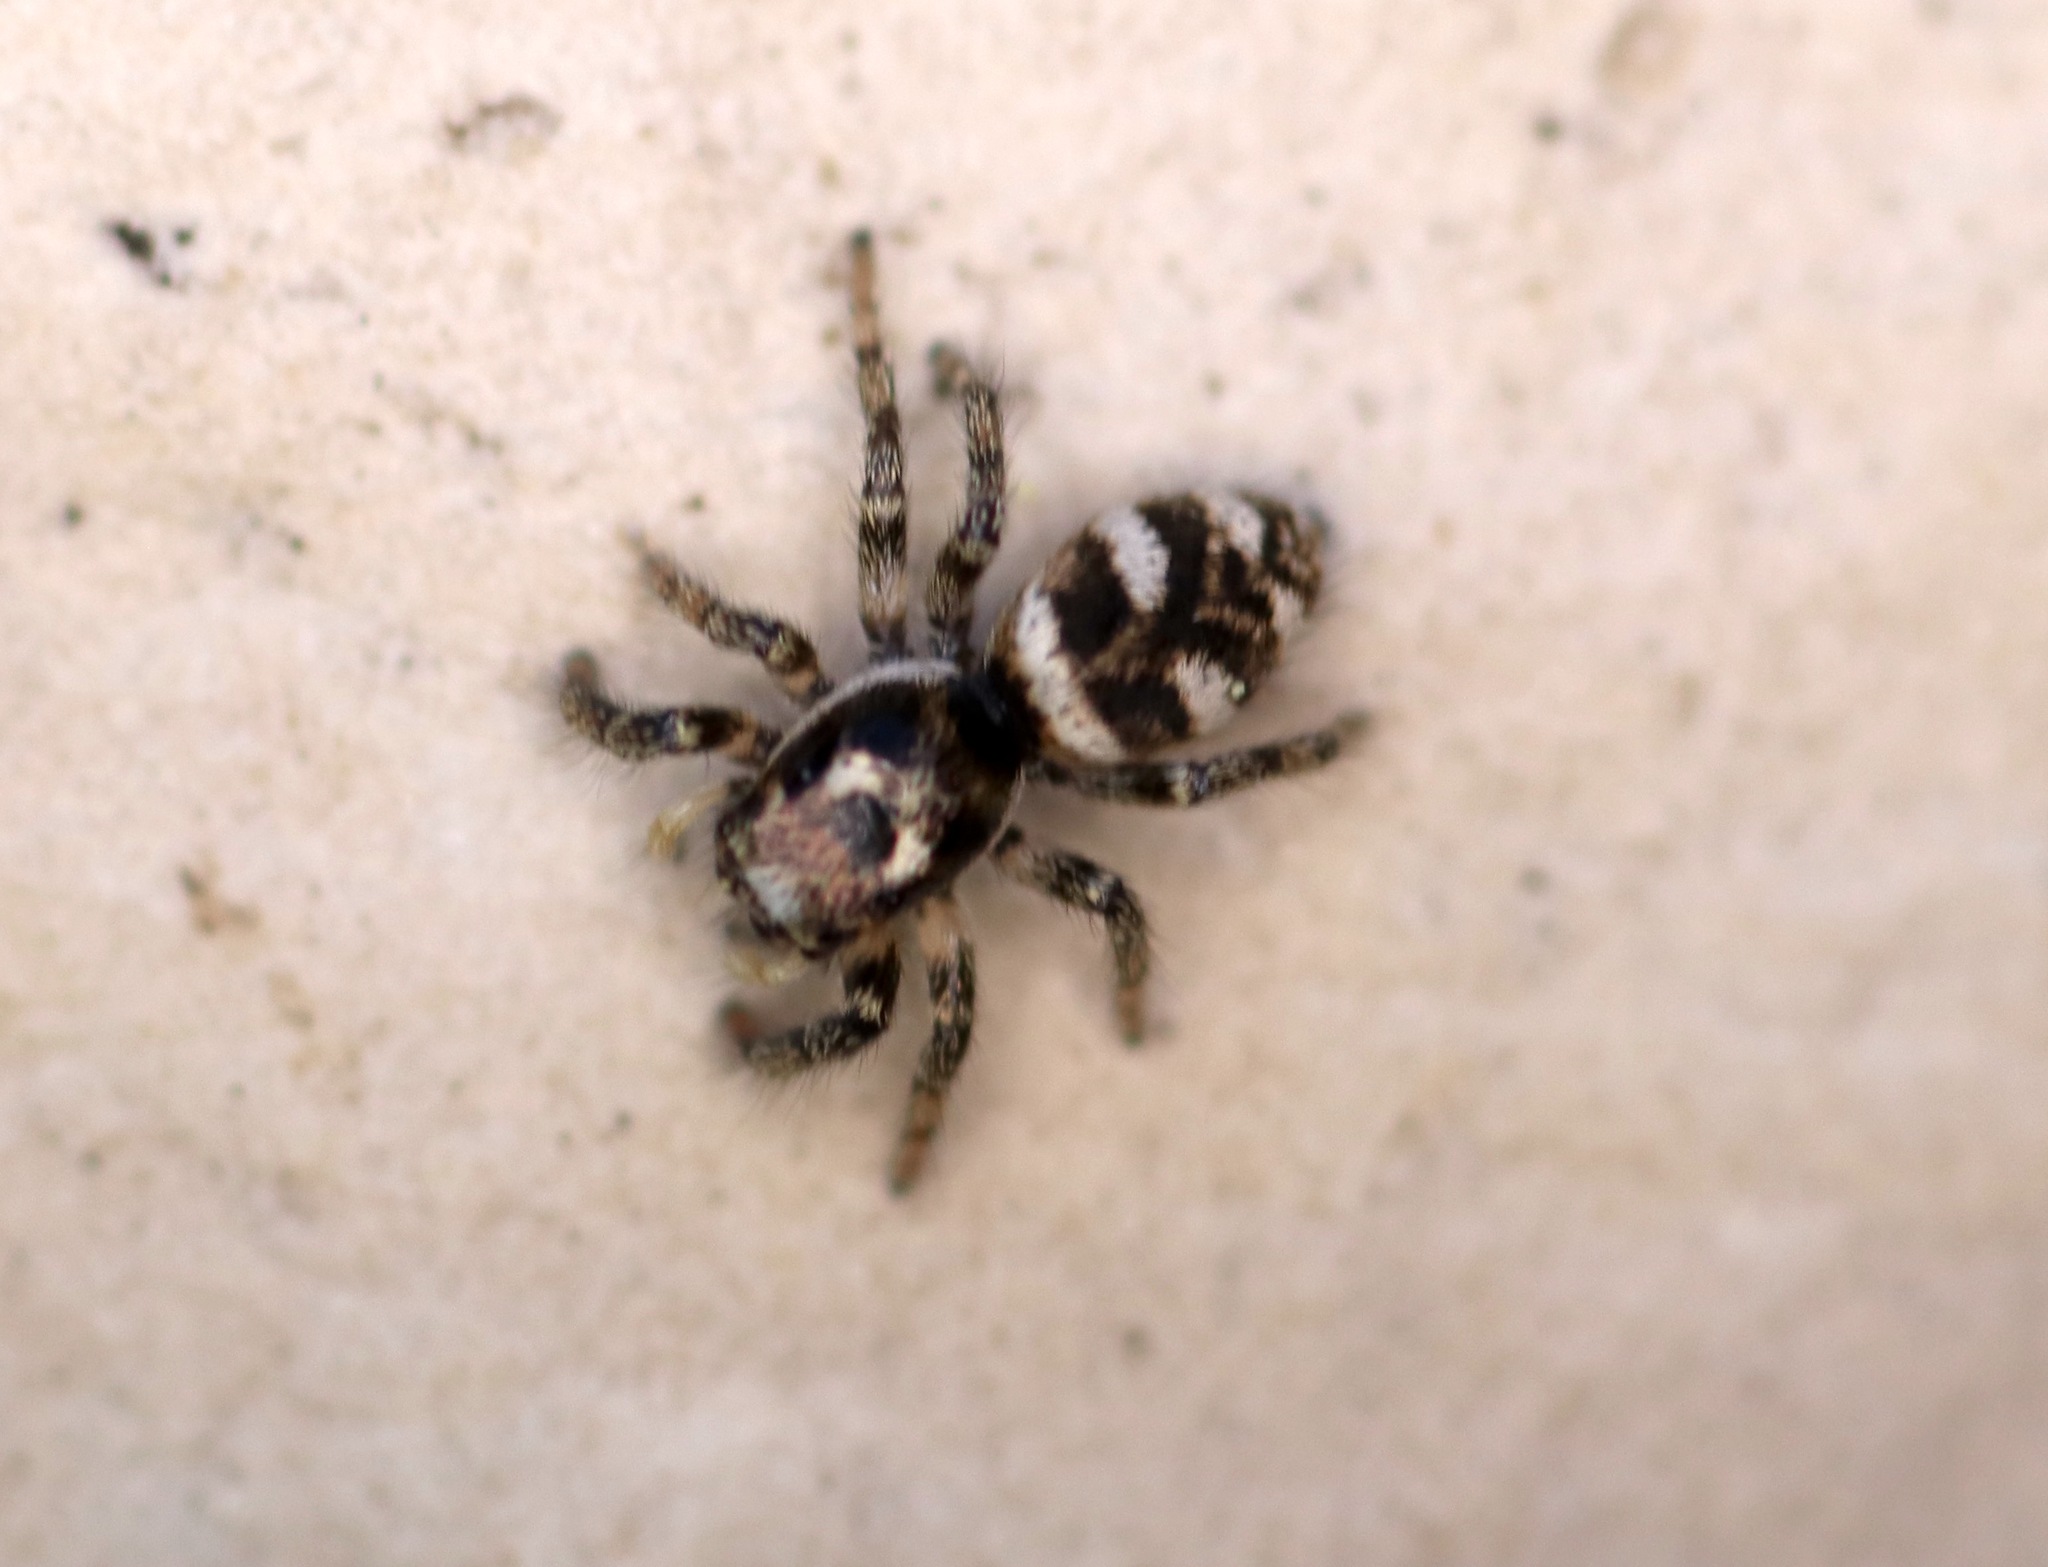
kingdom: Animalia
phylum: Arthropoda
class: Arachnida
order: Araneae
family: Salticidae
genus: Salticus
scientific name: Salticus scenicus
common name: Zebra jumper
